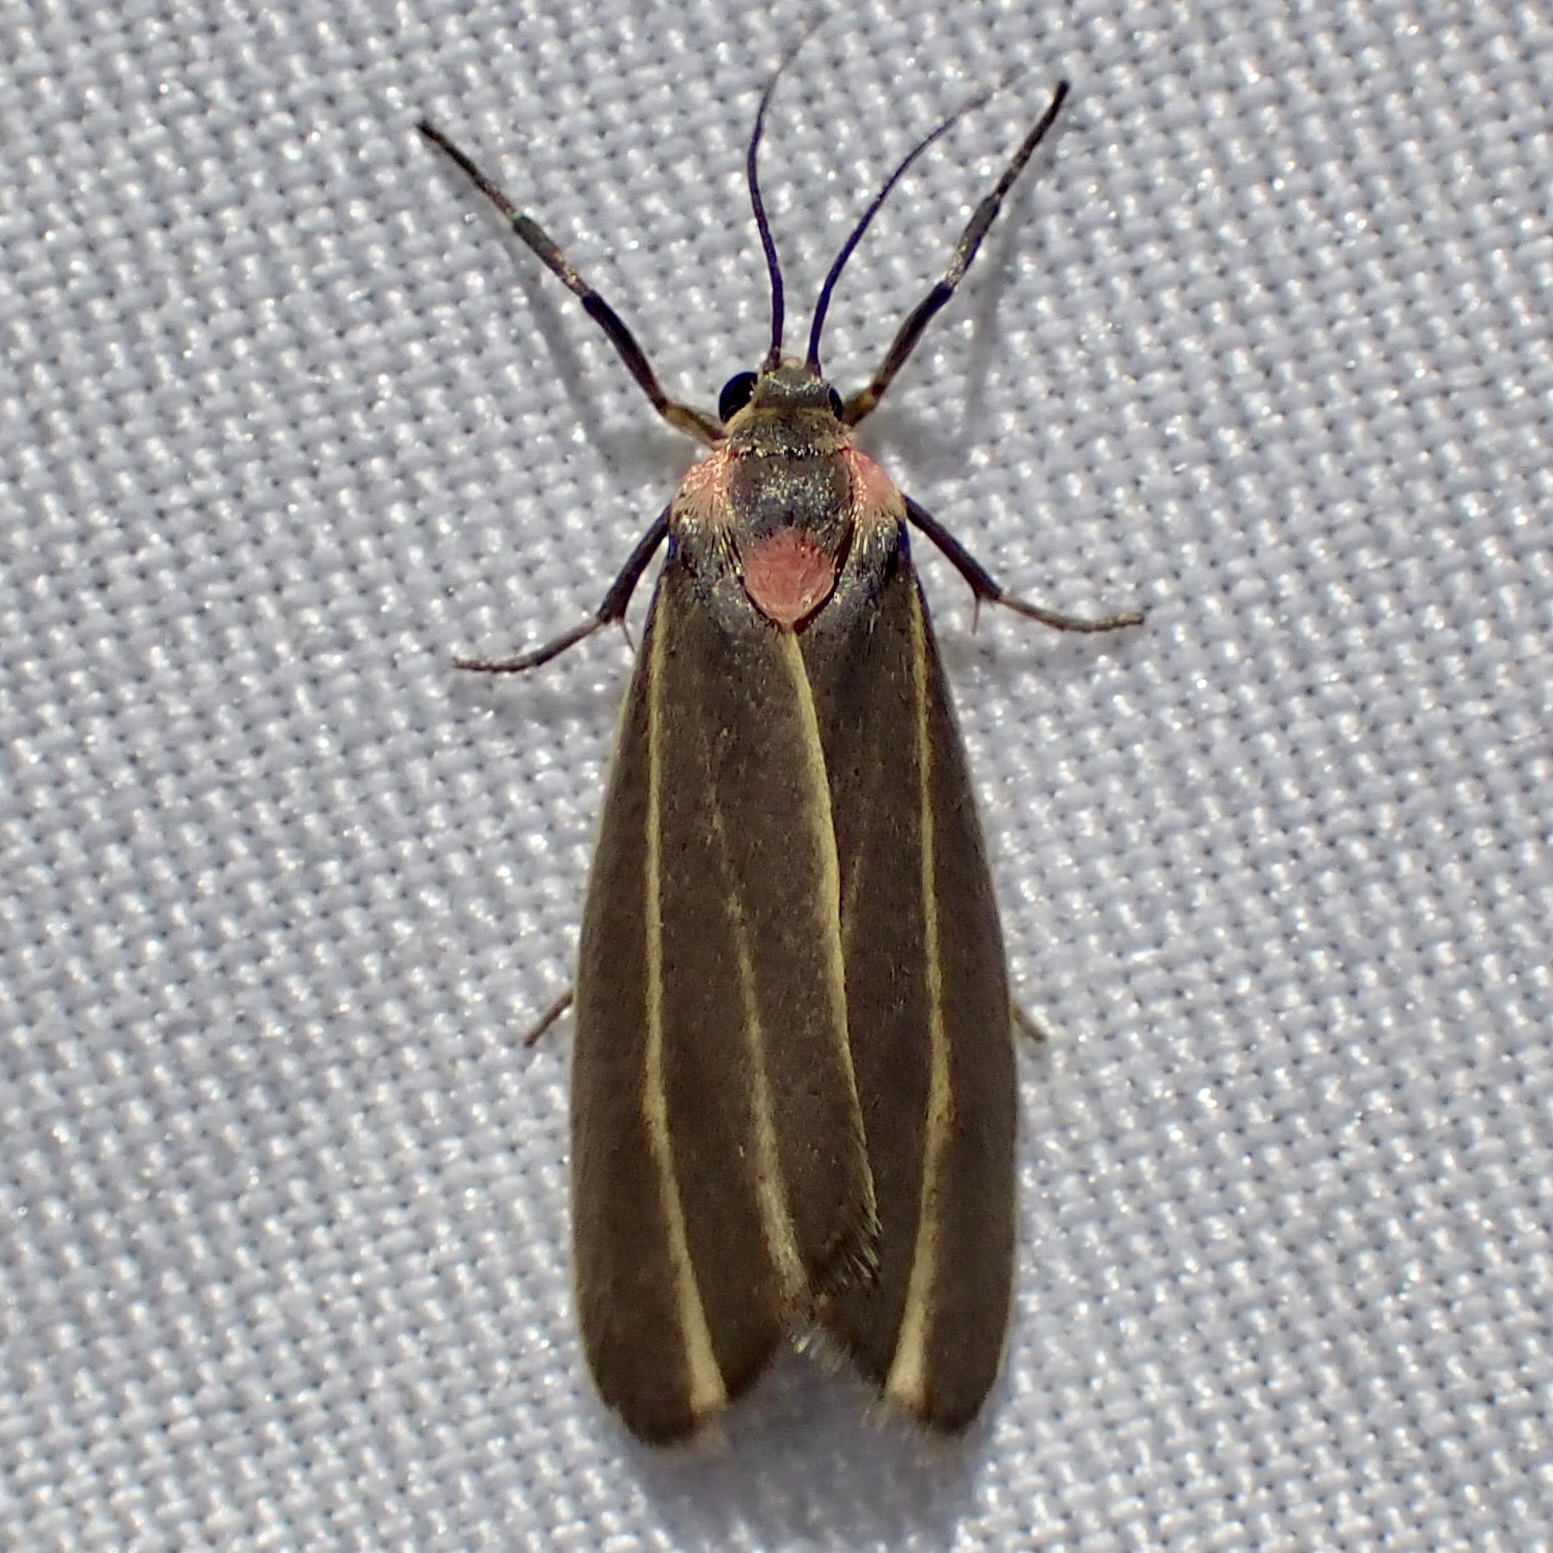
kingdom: Animalia
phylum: Arthropoda
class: Insecta
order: Lepidoptera
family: Erebidae
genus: Haematomis
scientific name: Haematomis uniformis
